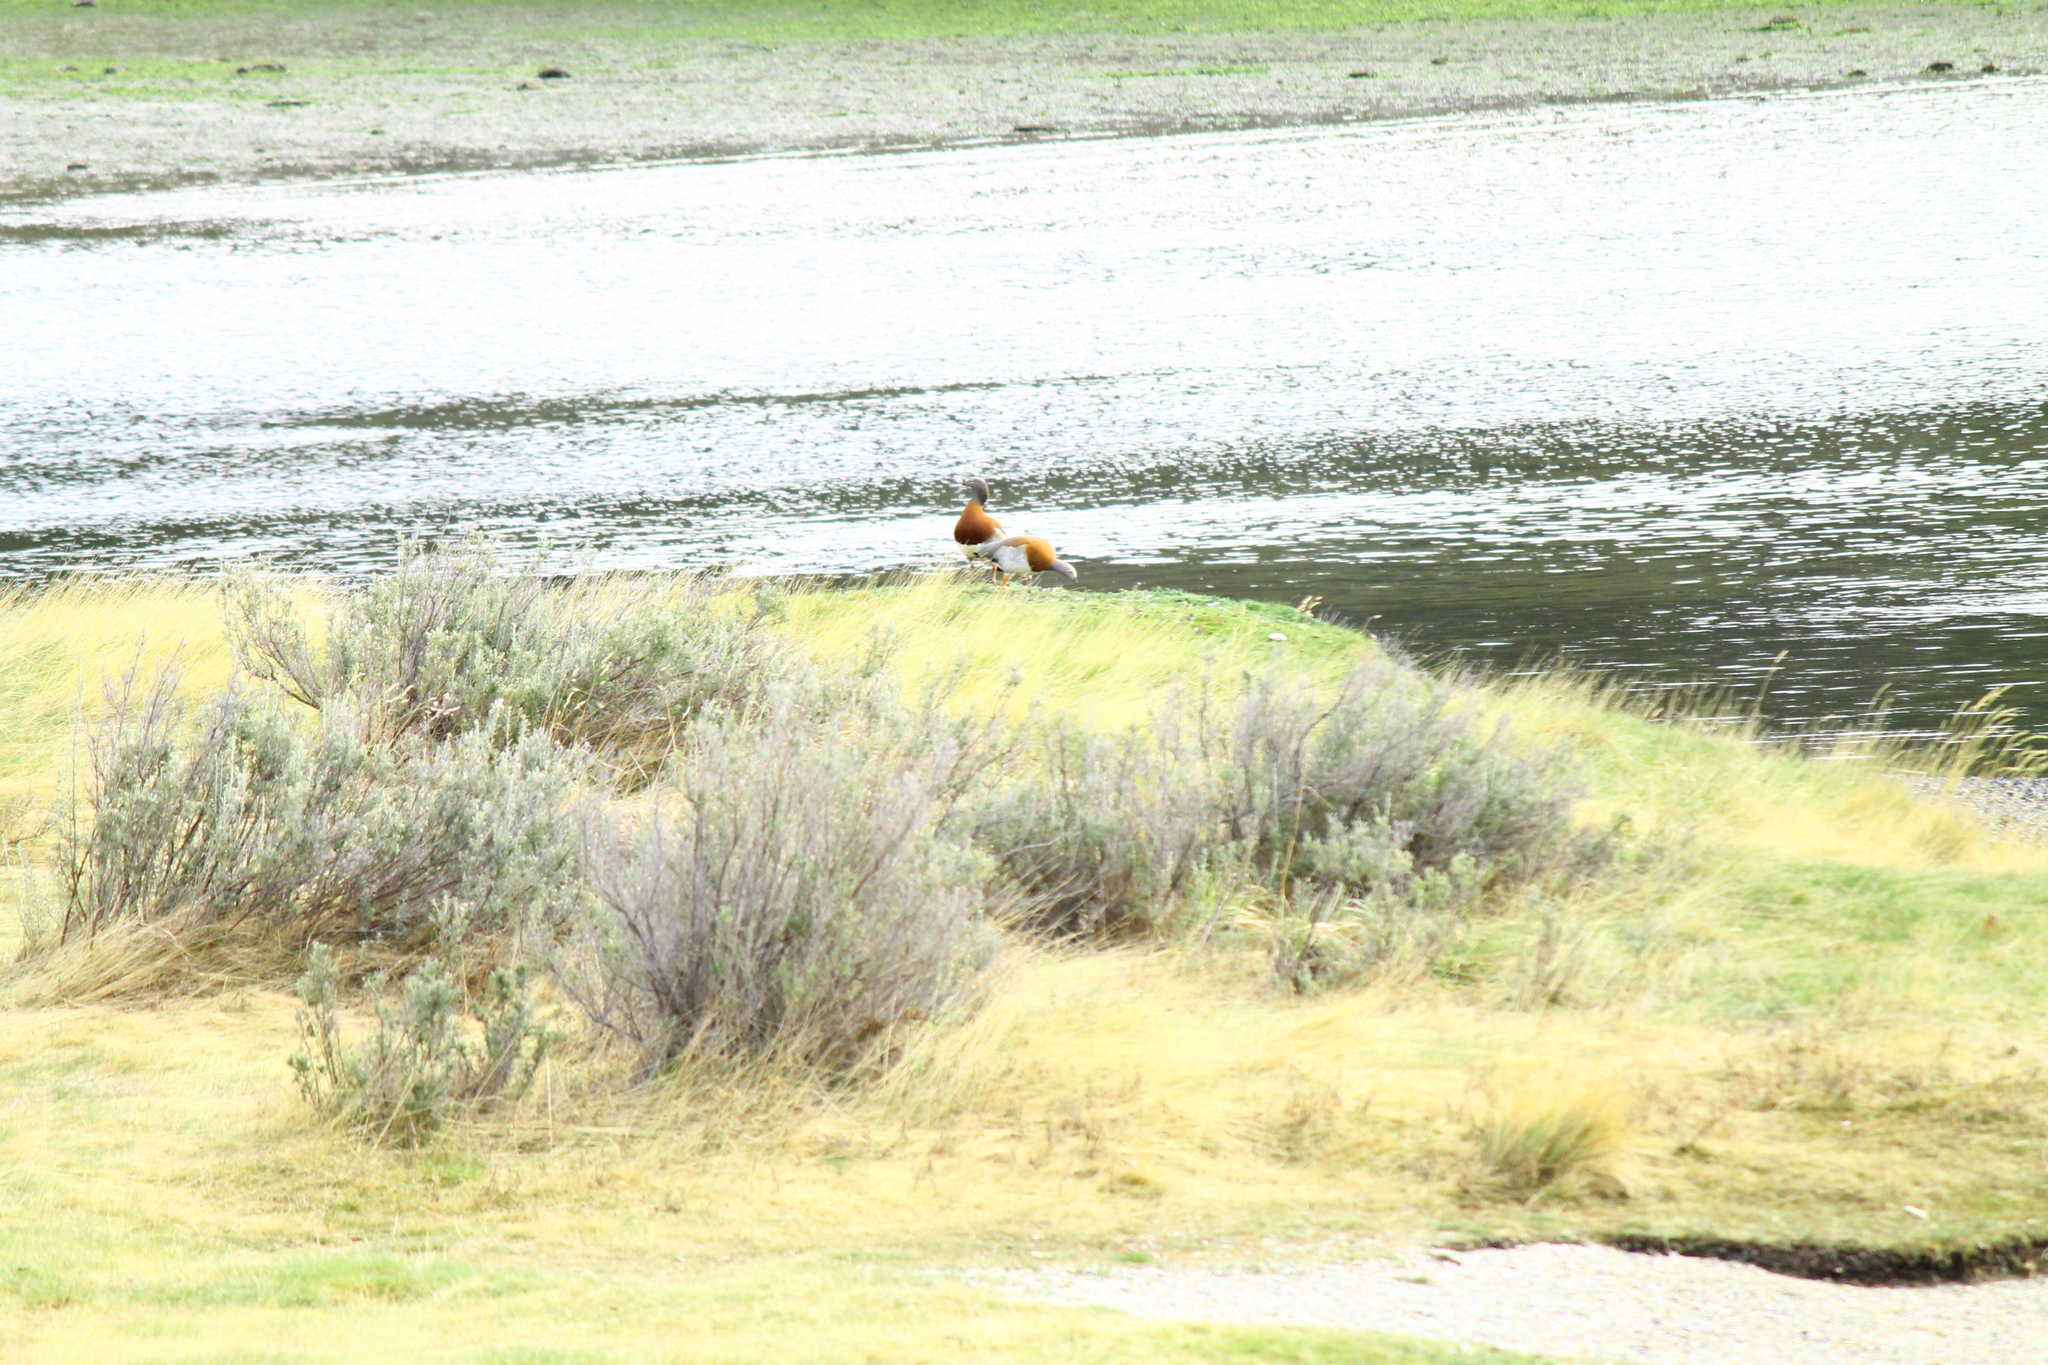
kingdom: Animalia
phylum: Chordata
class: Aves
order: Anseriformes
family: Anatidae
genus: Chloephaga
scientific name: Chloephaga poliocephala
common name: Ashy-headed goose
